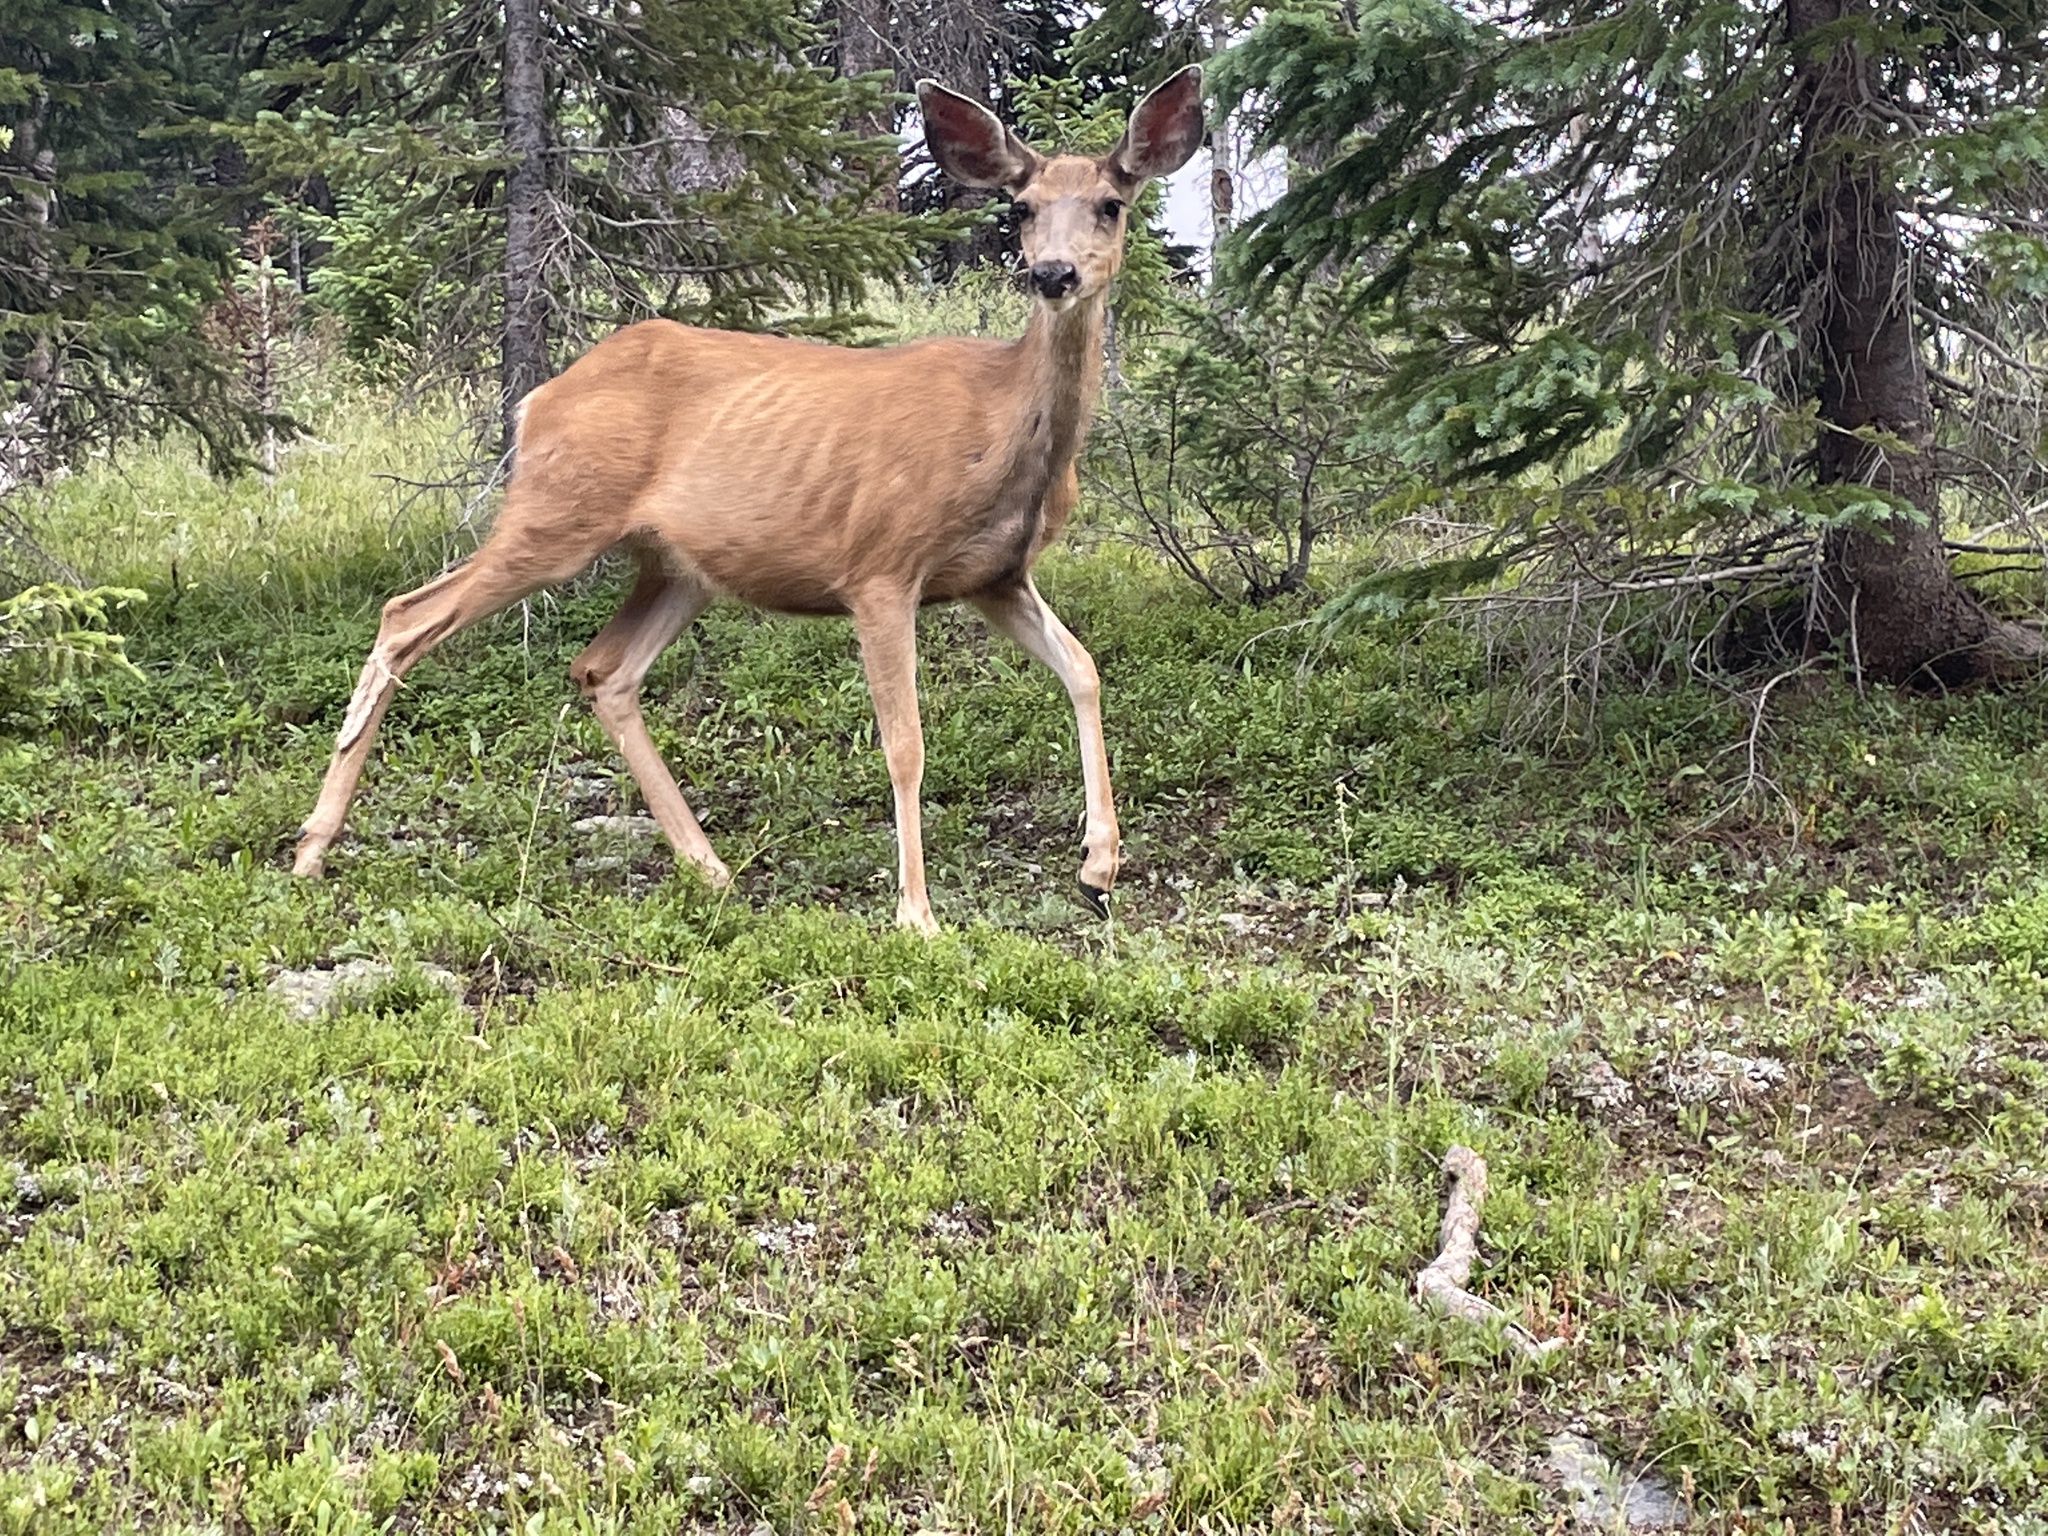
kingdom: Animalia
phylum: Chordata
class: Mammalia
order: Artiodactyla
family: Cervidae
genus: Odocoileus
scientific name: Odocoileus hemionus
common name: Mule deer
